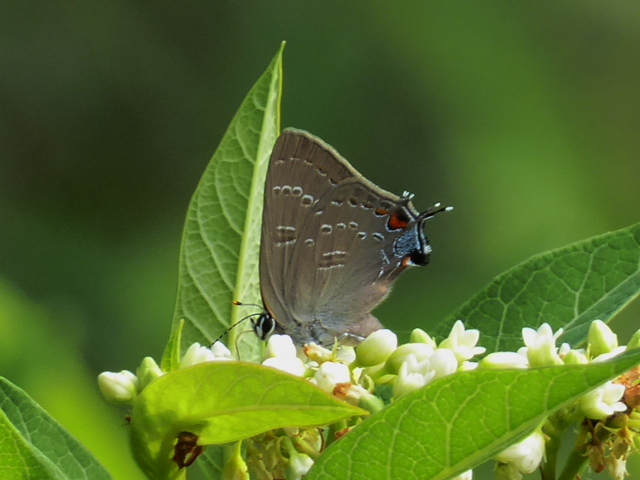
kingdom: Animalia
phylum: Arthropoda
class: Insecta
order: Lepidoptera
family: Lycaenidae
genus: Satyrium
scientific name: Satyrium edwardsii
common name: Edwards' hairstreak
